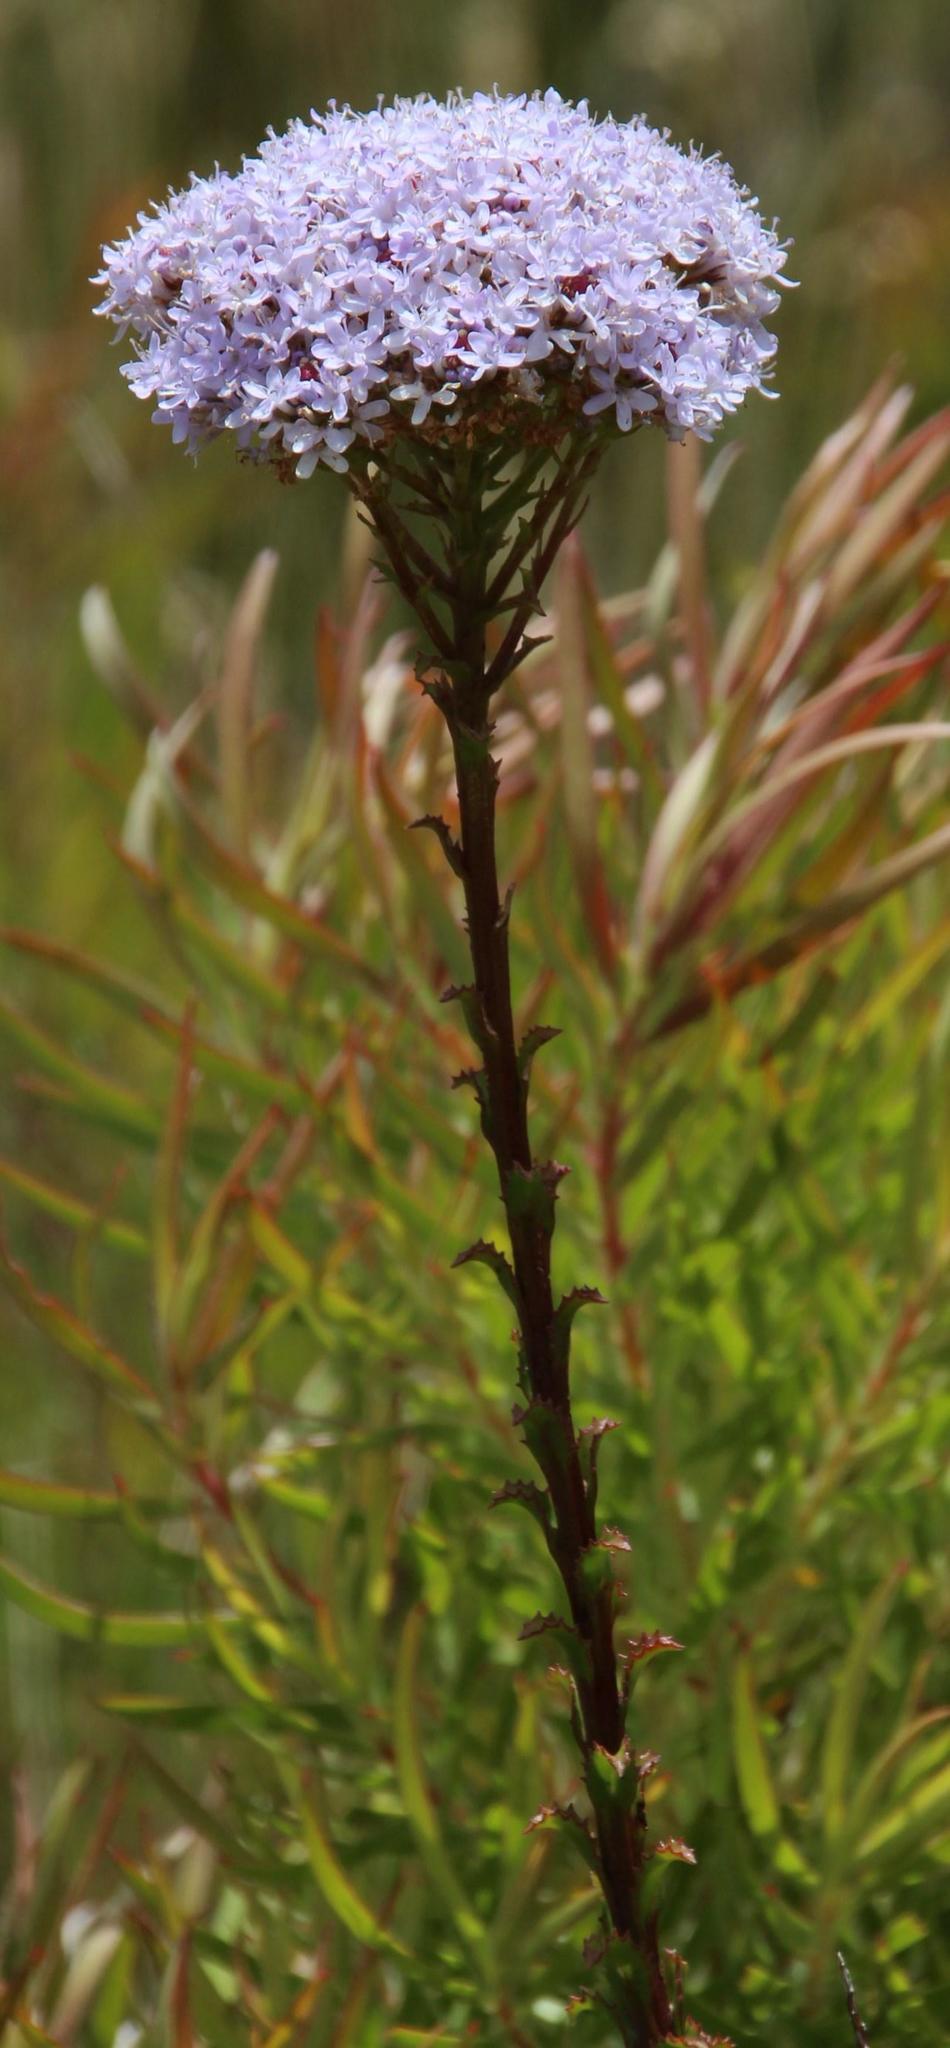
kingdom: Plantae
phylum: Tracheophyta
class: Magnoliopsida
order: Lamiales
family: Scrophulariaceae
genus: Pseudoselago
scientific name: Pseudoselago serrata
